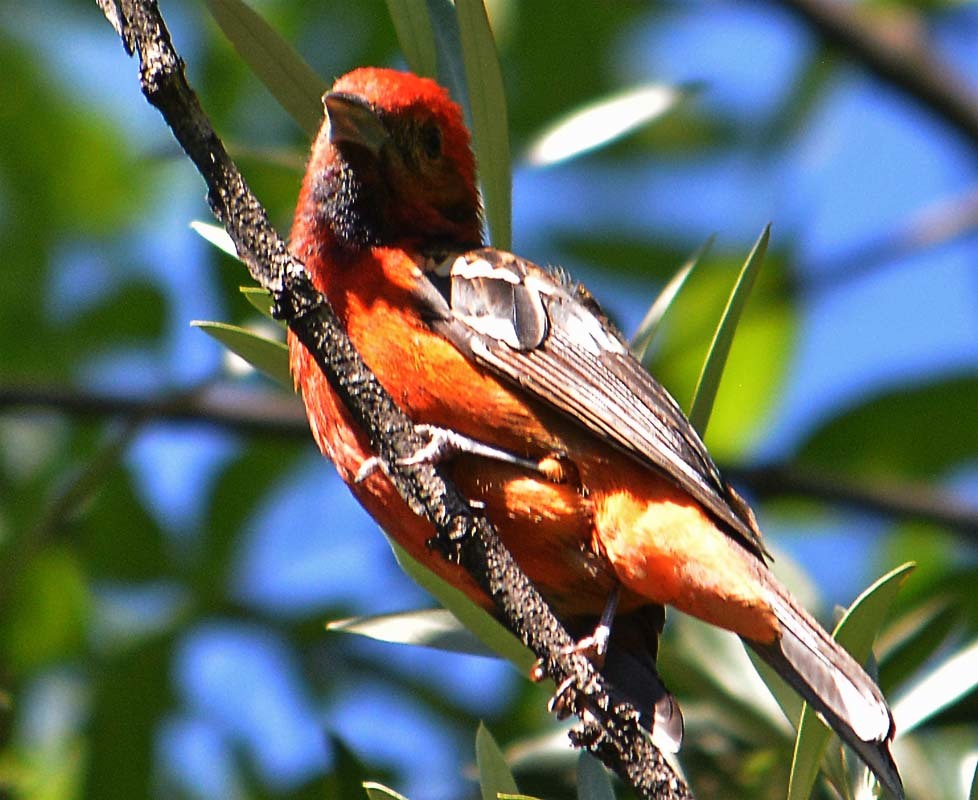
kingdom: Animalia
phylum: Chordata
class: Aves
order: Passeriformes
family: Cardinalidae
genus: Piranga
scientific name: Piranga bidentata
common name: Flame-colored tanager
